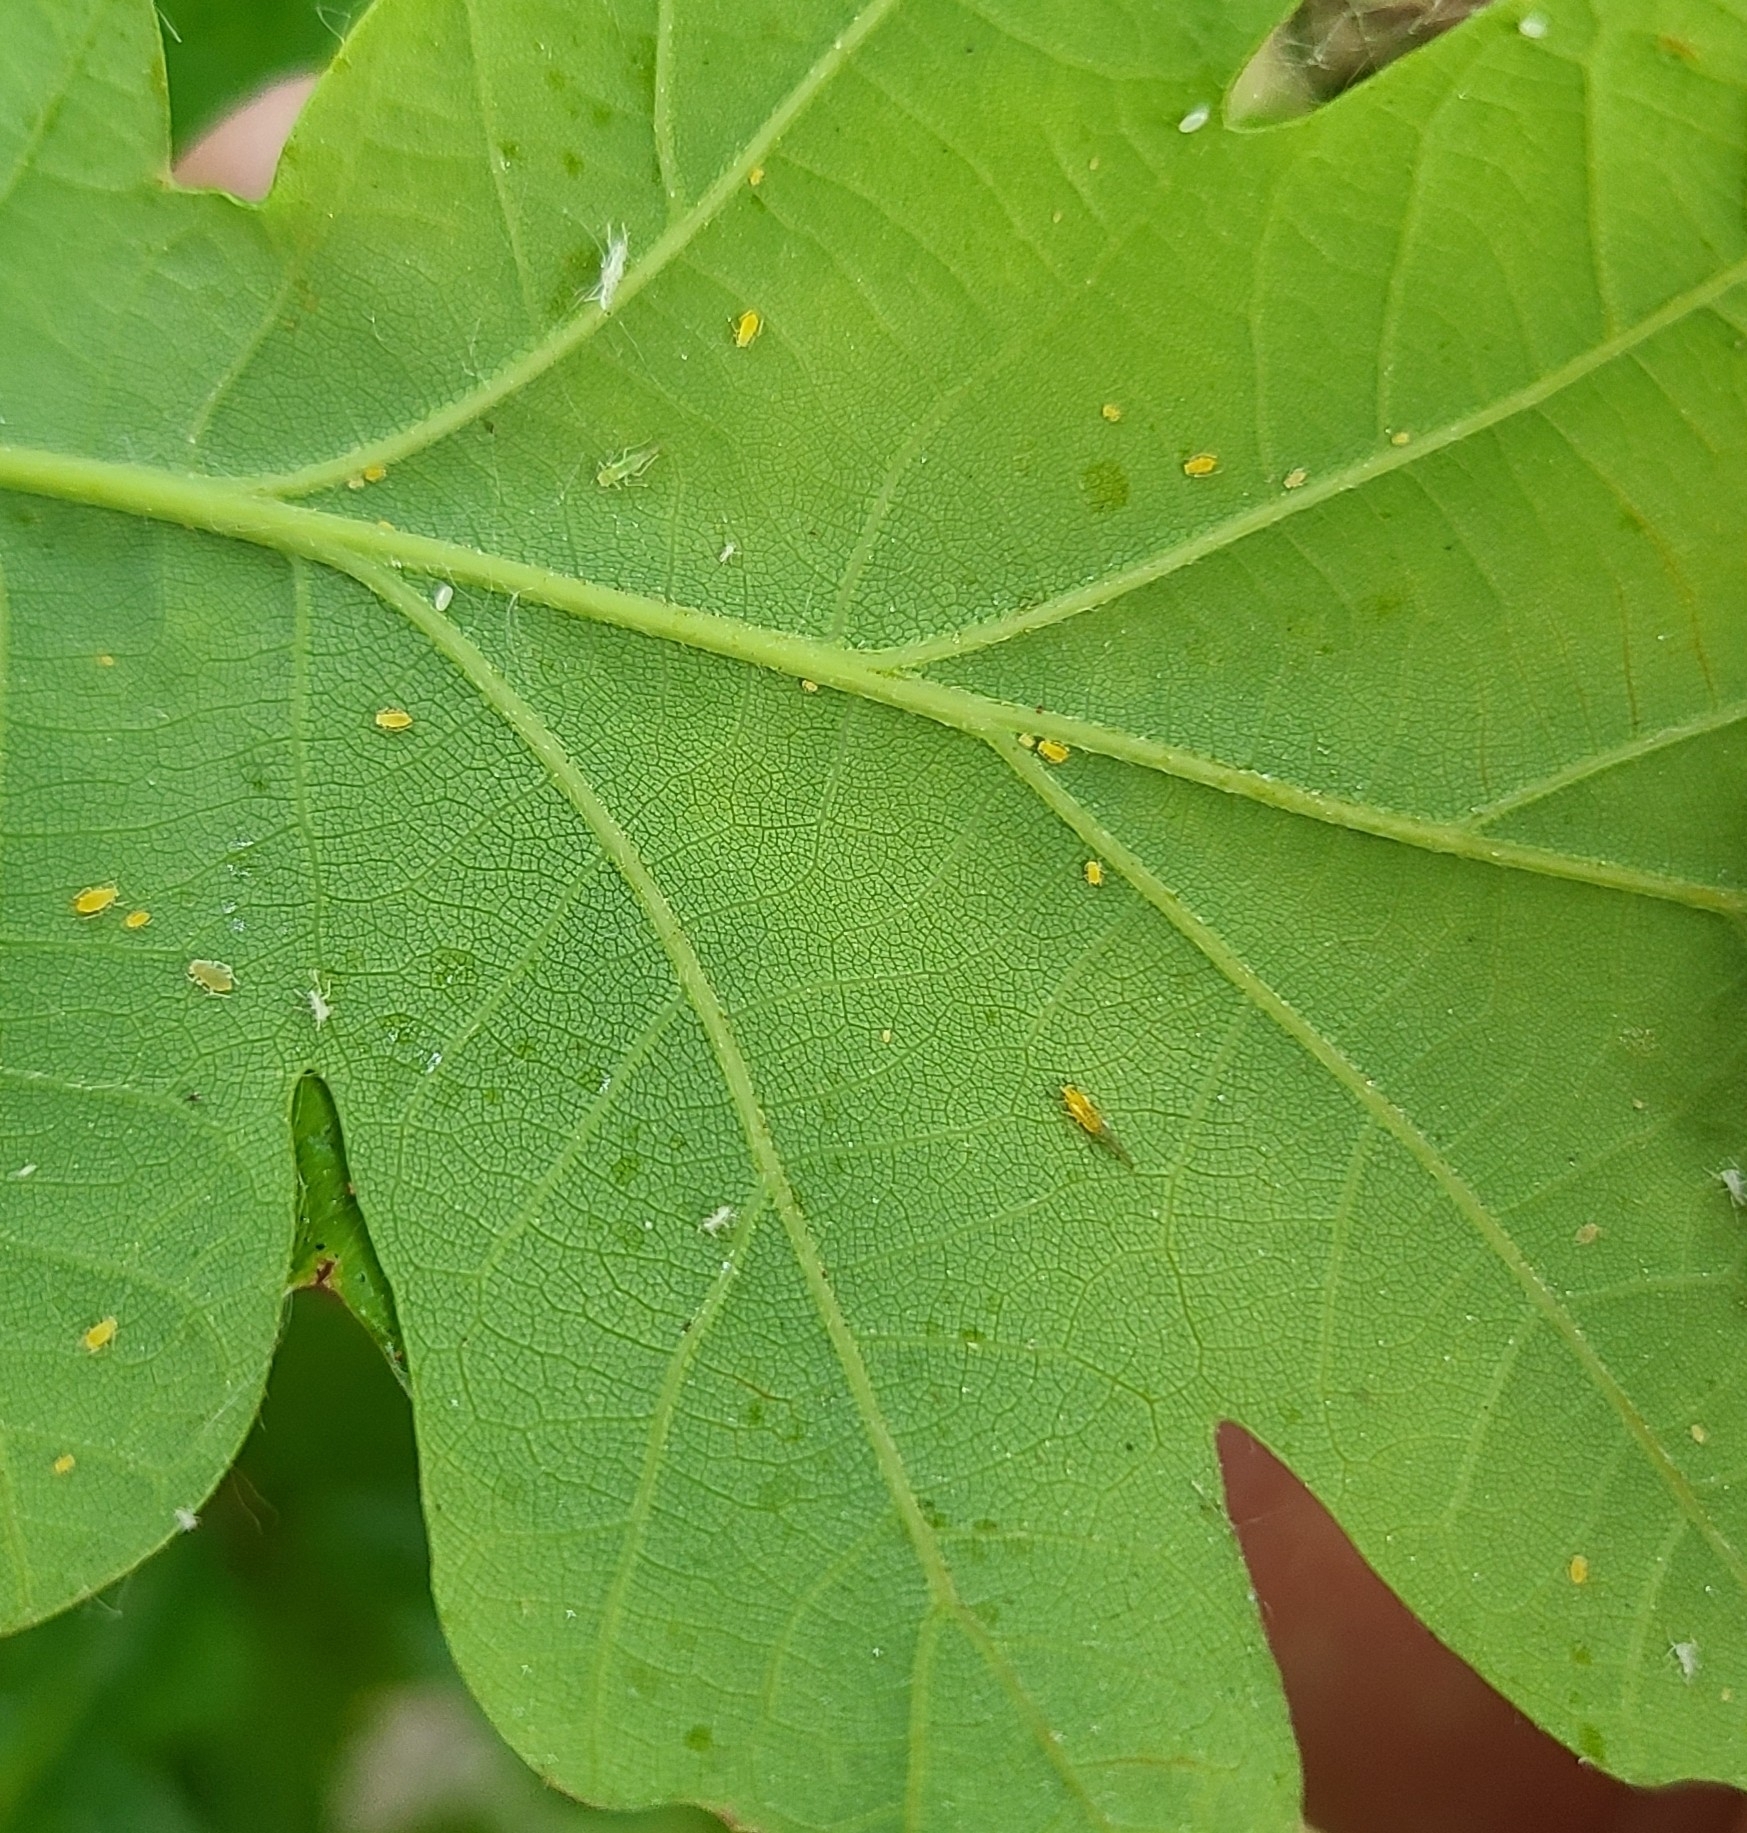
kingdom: Animalia
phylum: Arthropoda
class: Insecta
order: Hemiptera
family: Aphididae
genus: Myzocallis
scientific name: Myzocallis boerneri
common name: Turkey oak aphid
